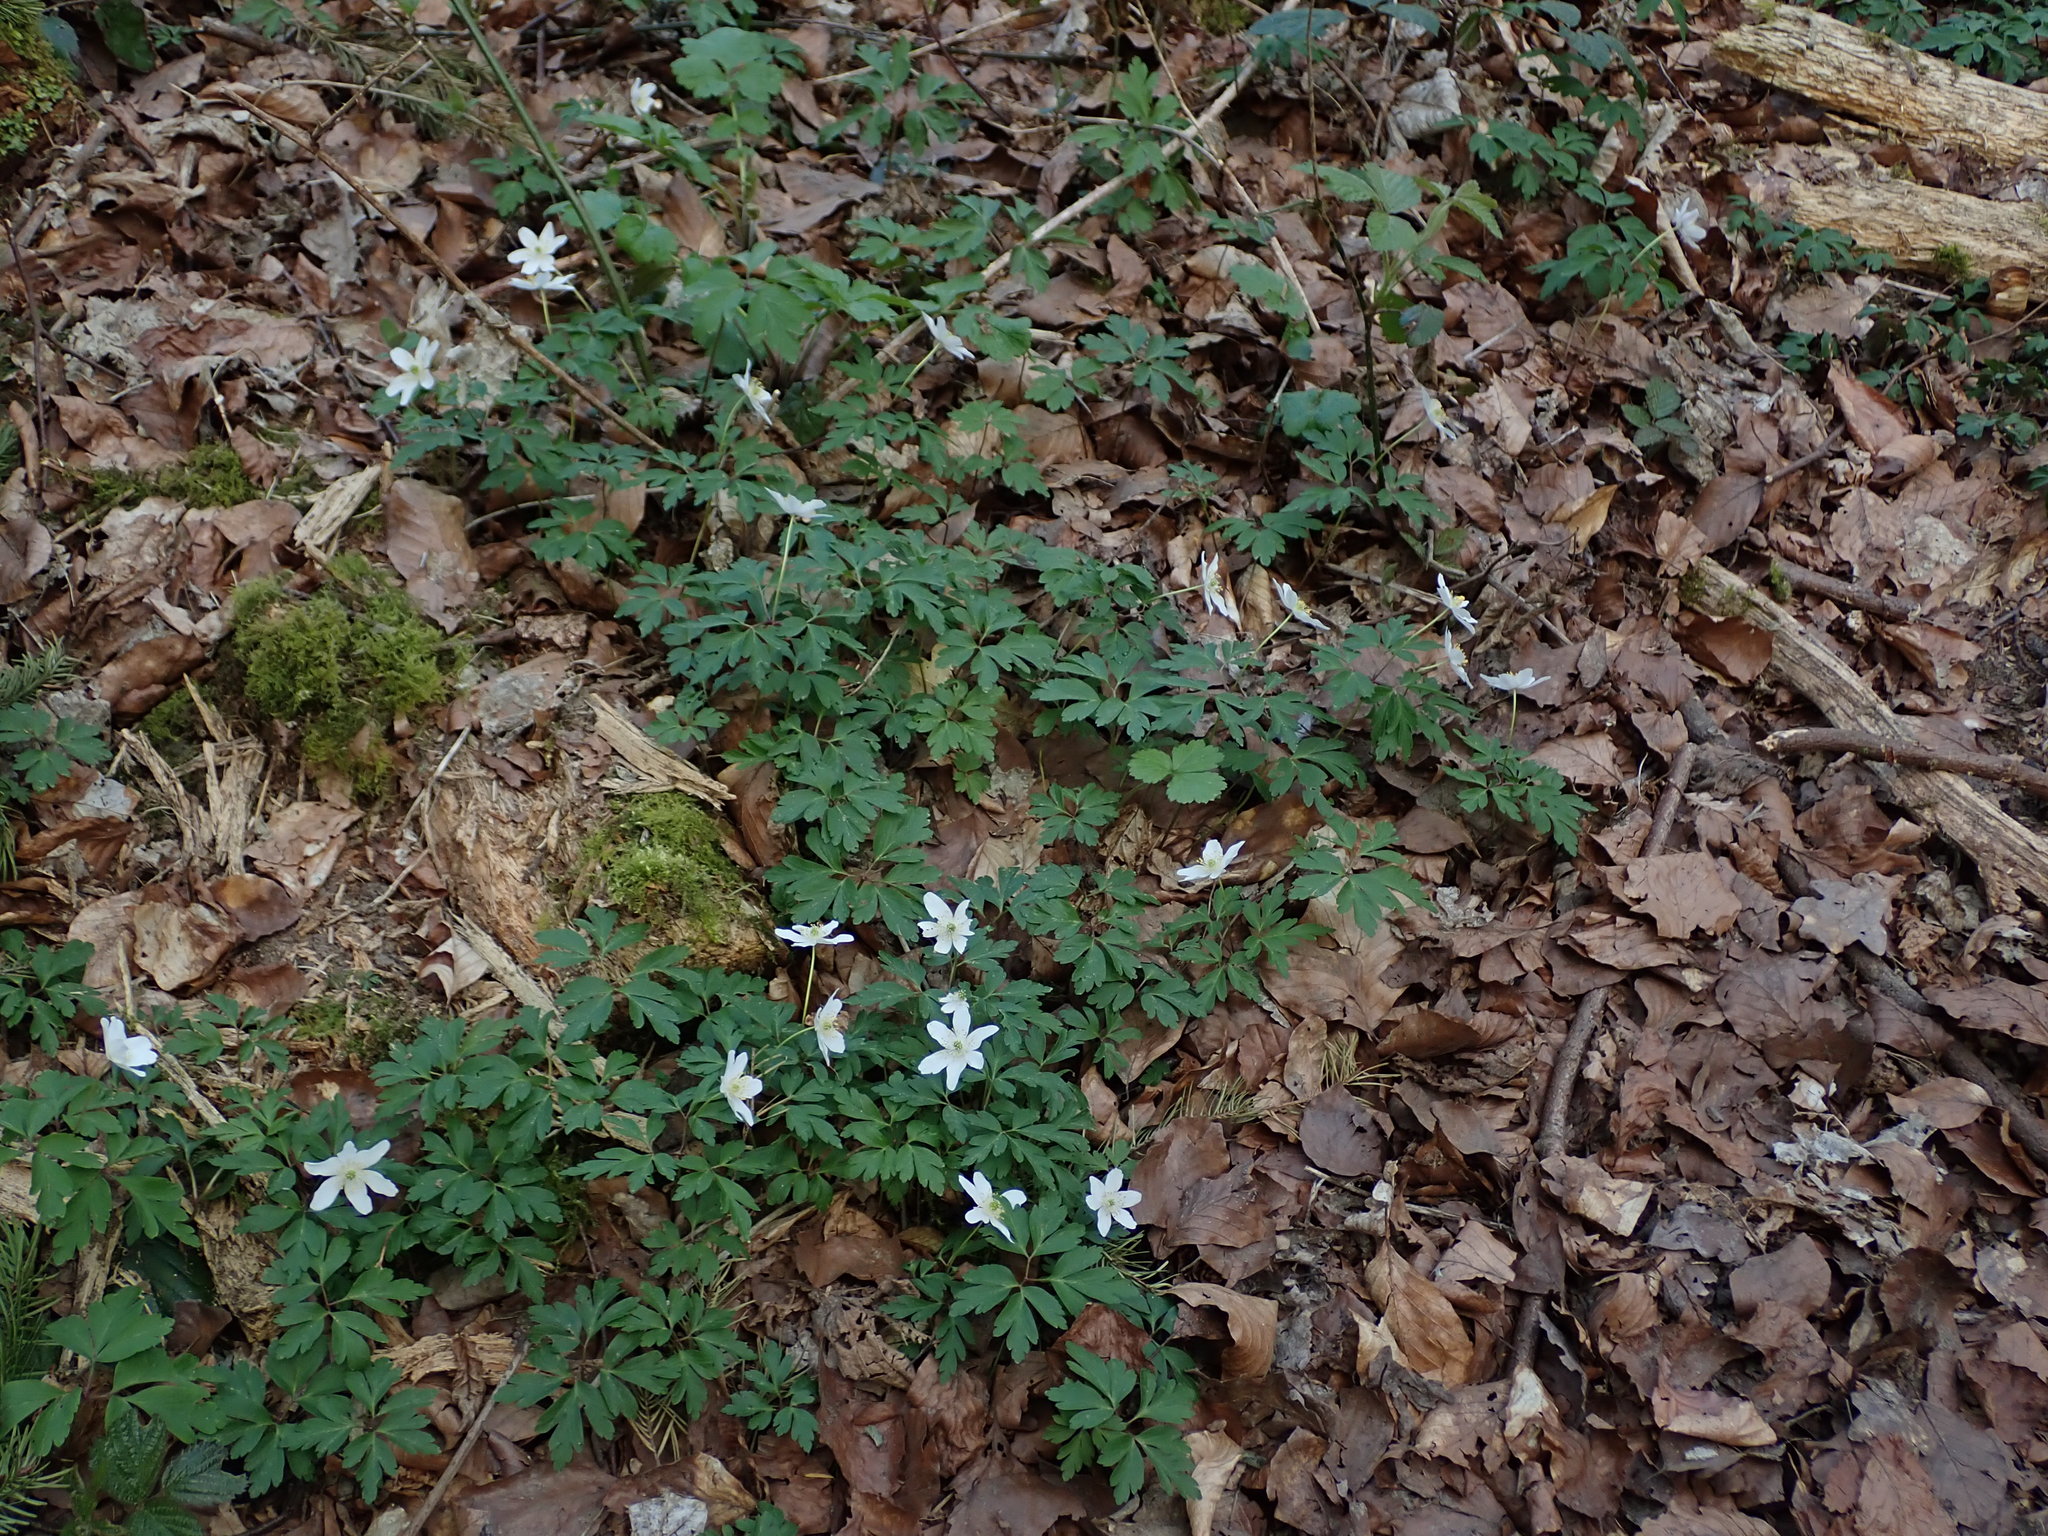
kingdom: Plantae
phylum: Tracheophyta
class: Magnoliopsida
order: Ranunculales
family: Ranunculaceae
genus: Anemone
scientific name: Anemone nemorosa
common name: Wood anemone
